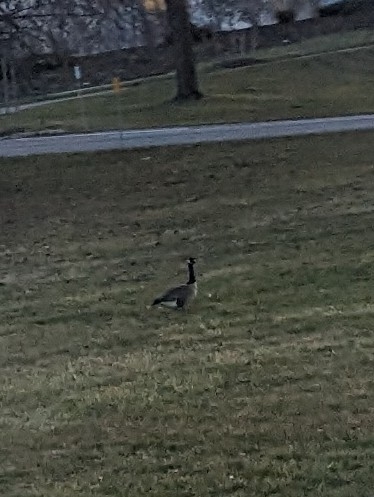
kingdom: Animalia
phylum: Chordata
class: Aves
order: Anseriformes
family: Anatidae
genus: Branta
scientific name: Branta canadensis
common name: Canada goose
